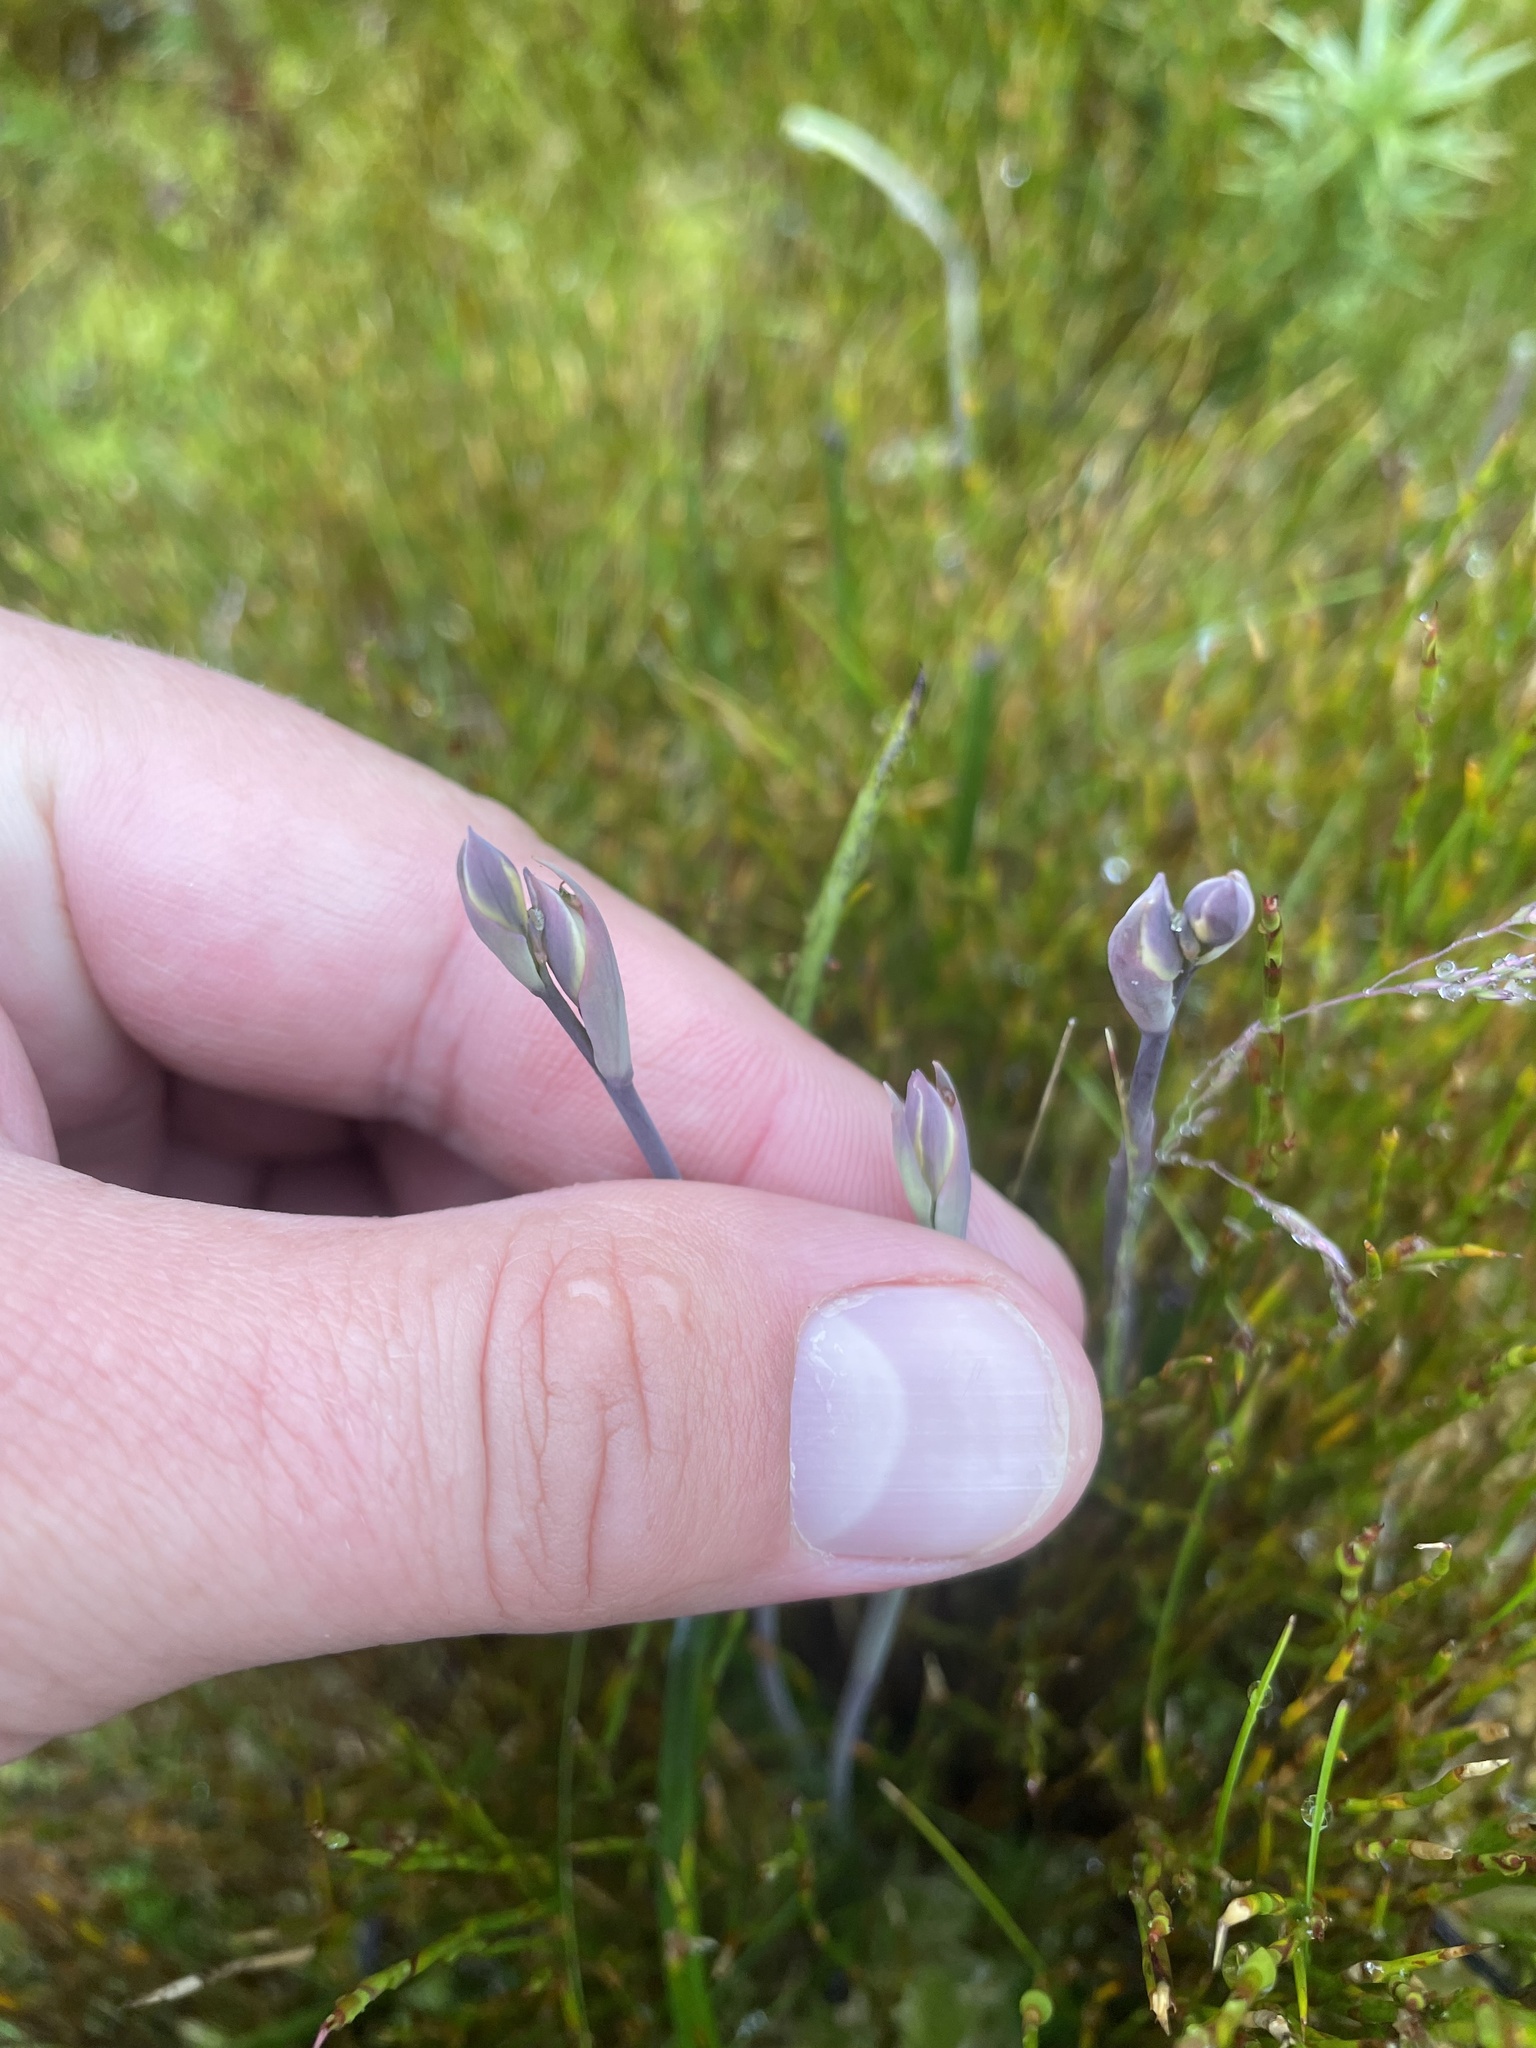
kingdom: Plantae
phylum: Tracheophyta
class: Liliopsida
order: Asparagales
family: Orchidaceae
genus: Thelymitra
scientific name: Thelymitra cyanea
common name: Blue sun-orchid
